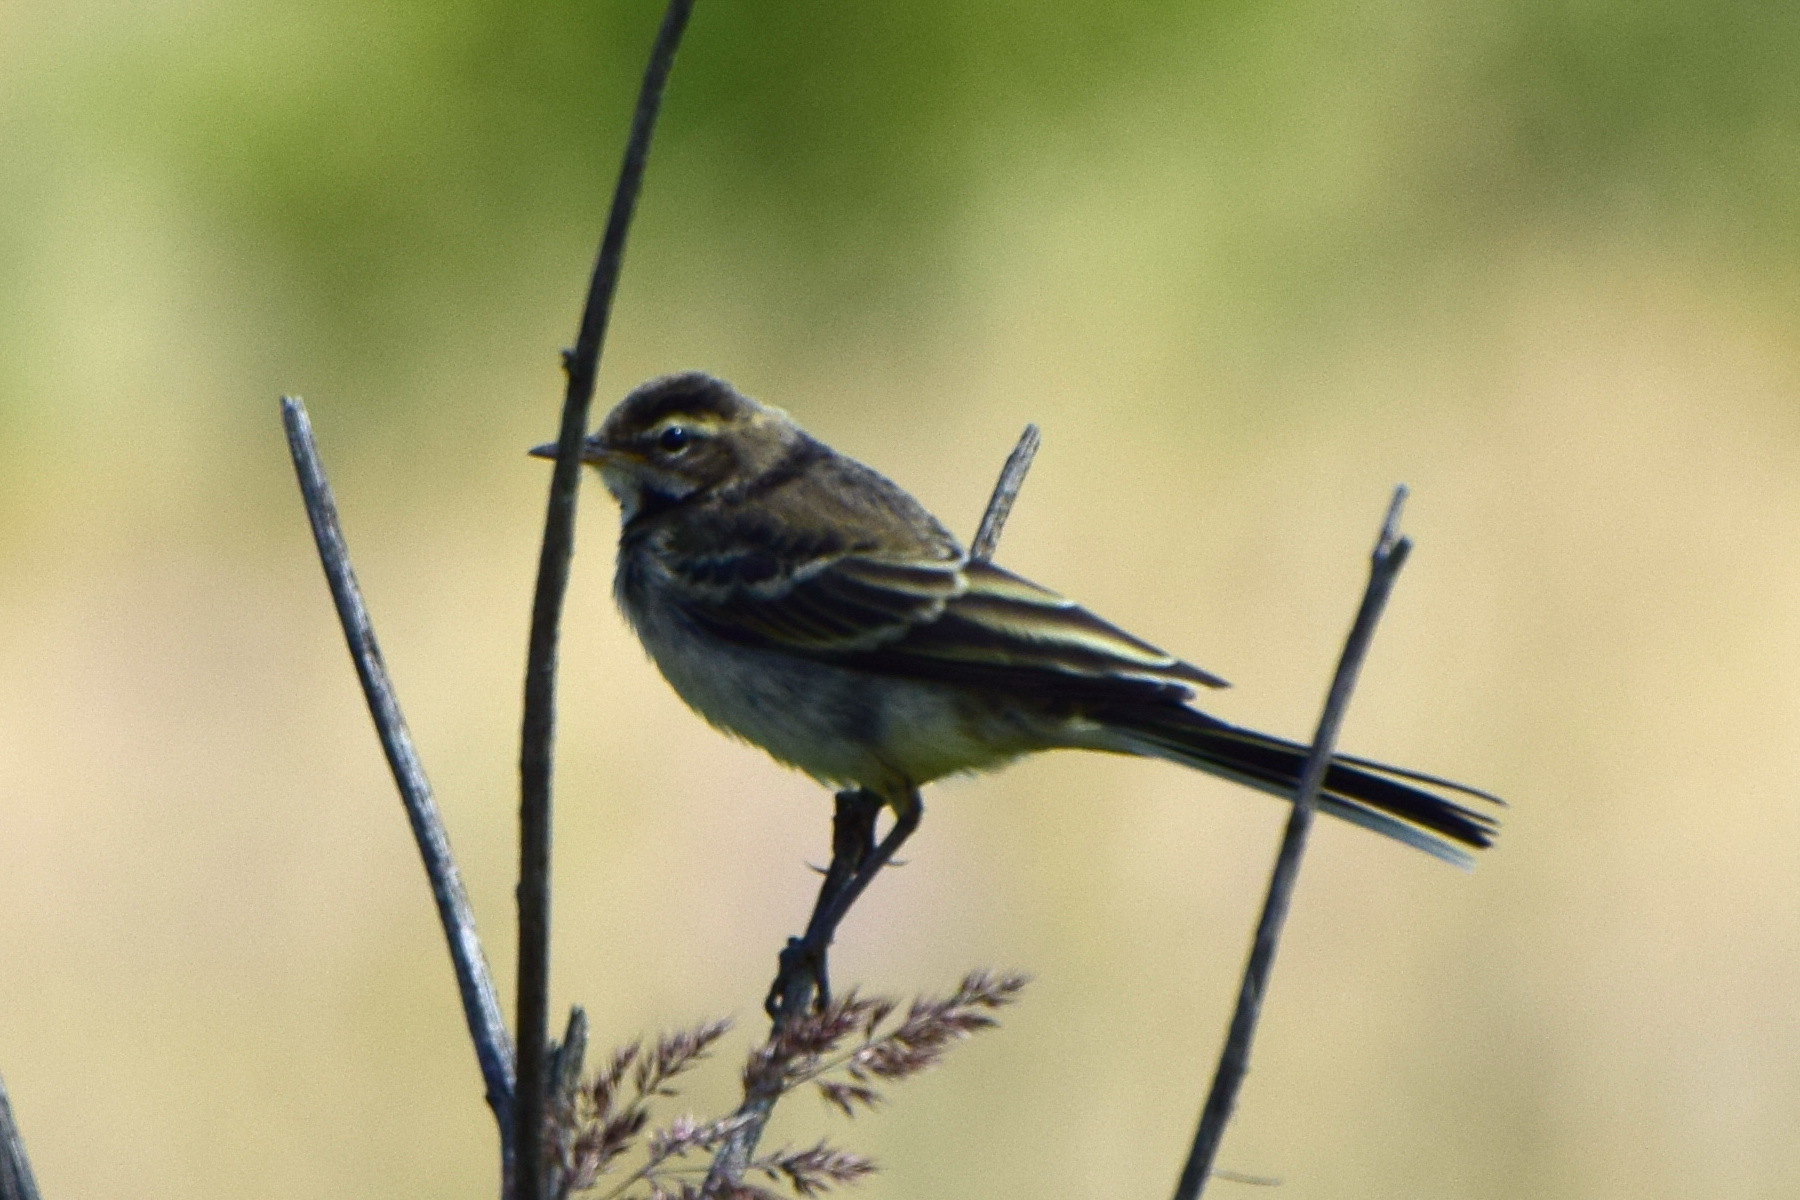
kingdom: Animalia
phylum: Chordata
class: Aves
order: Passeriformes
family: Motacillidae
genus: Motacilla
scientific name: Motacilla flava
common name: Western yellow wagtail
